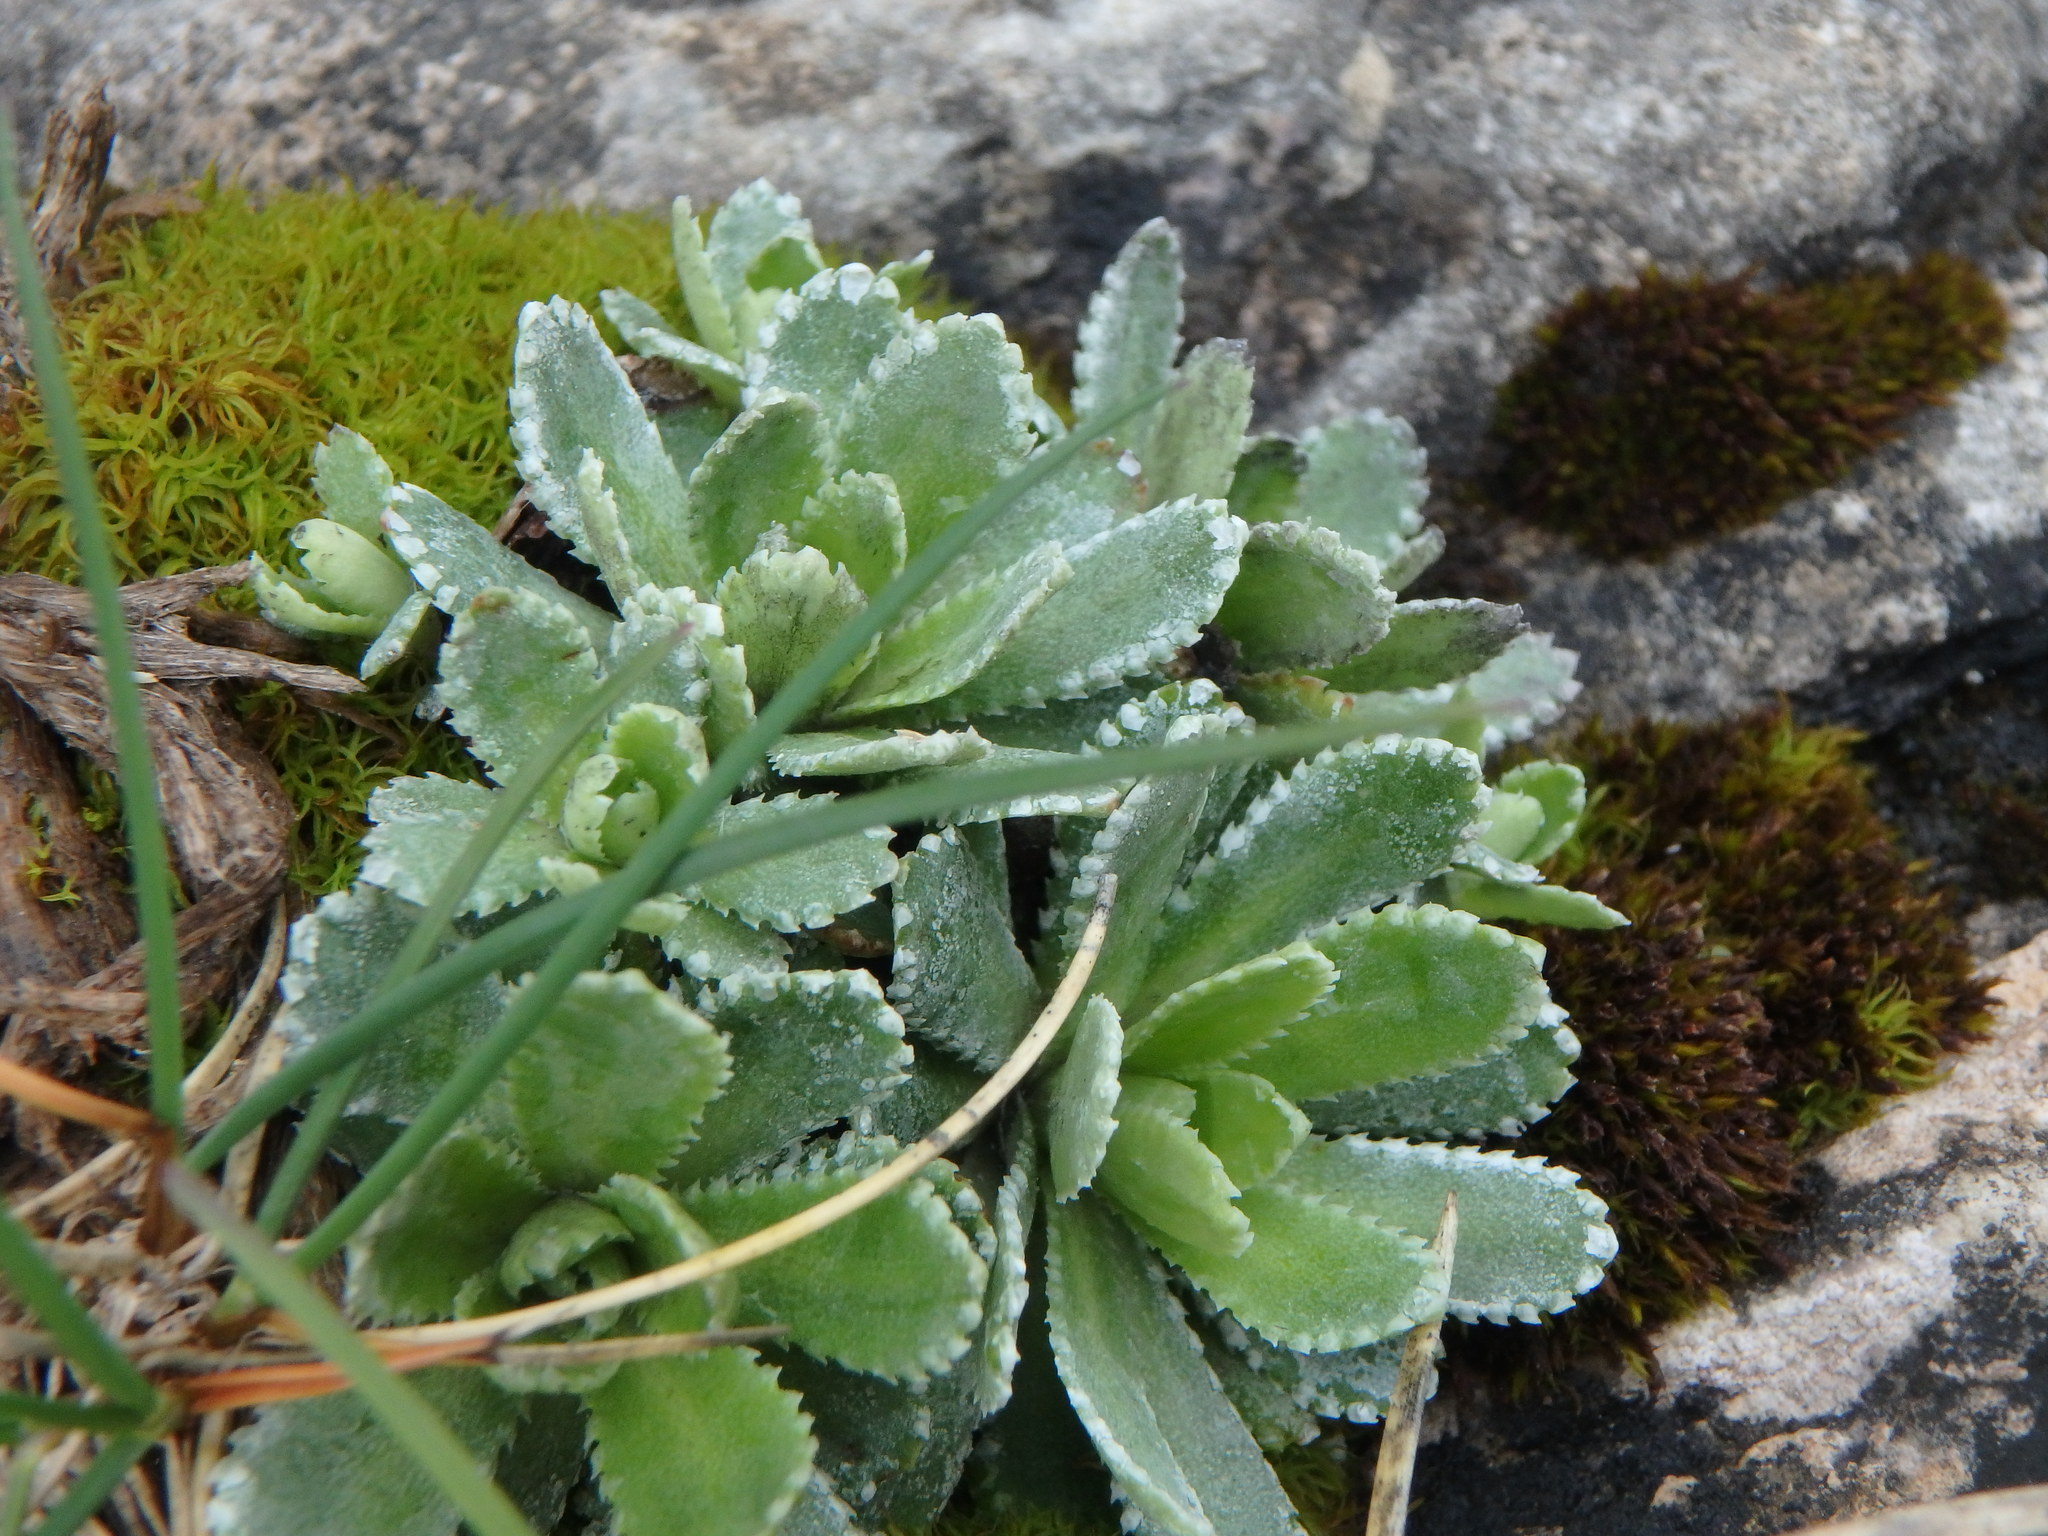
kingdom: Plantae
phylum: Tracheophyta
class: Magnoliopsida
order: Saxifragales
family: Saxifragaceae
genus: Saxifraga
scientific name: Saxifraga paniculata
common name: Livelong saxifrage
